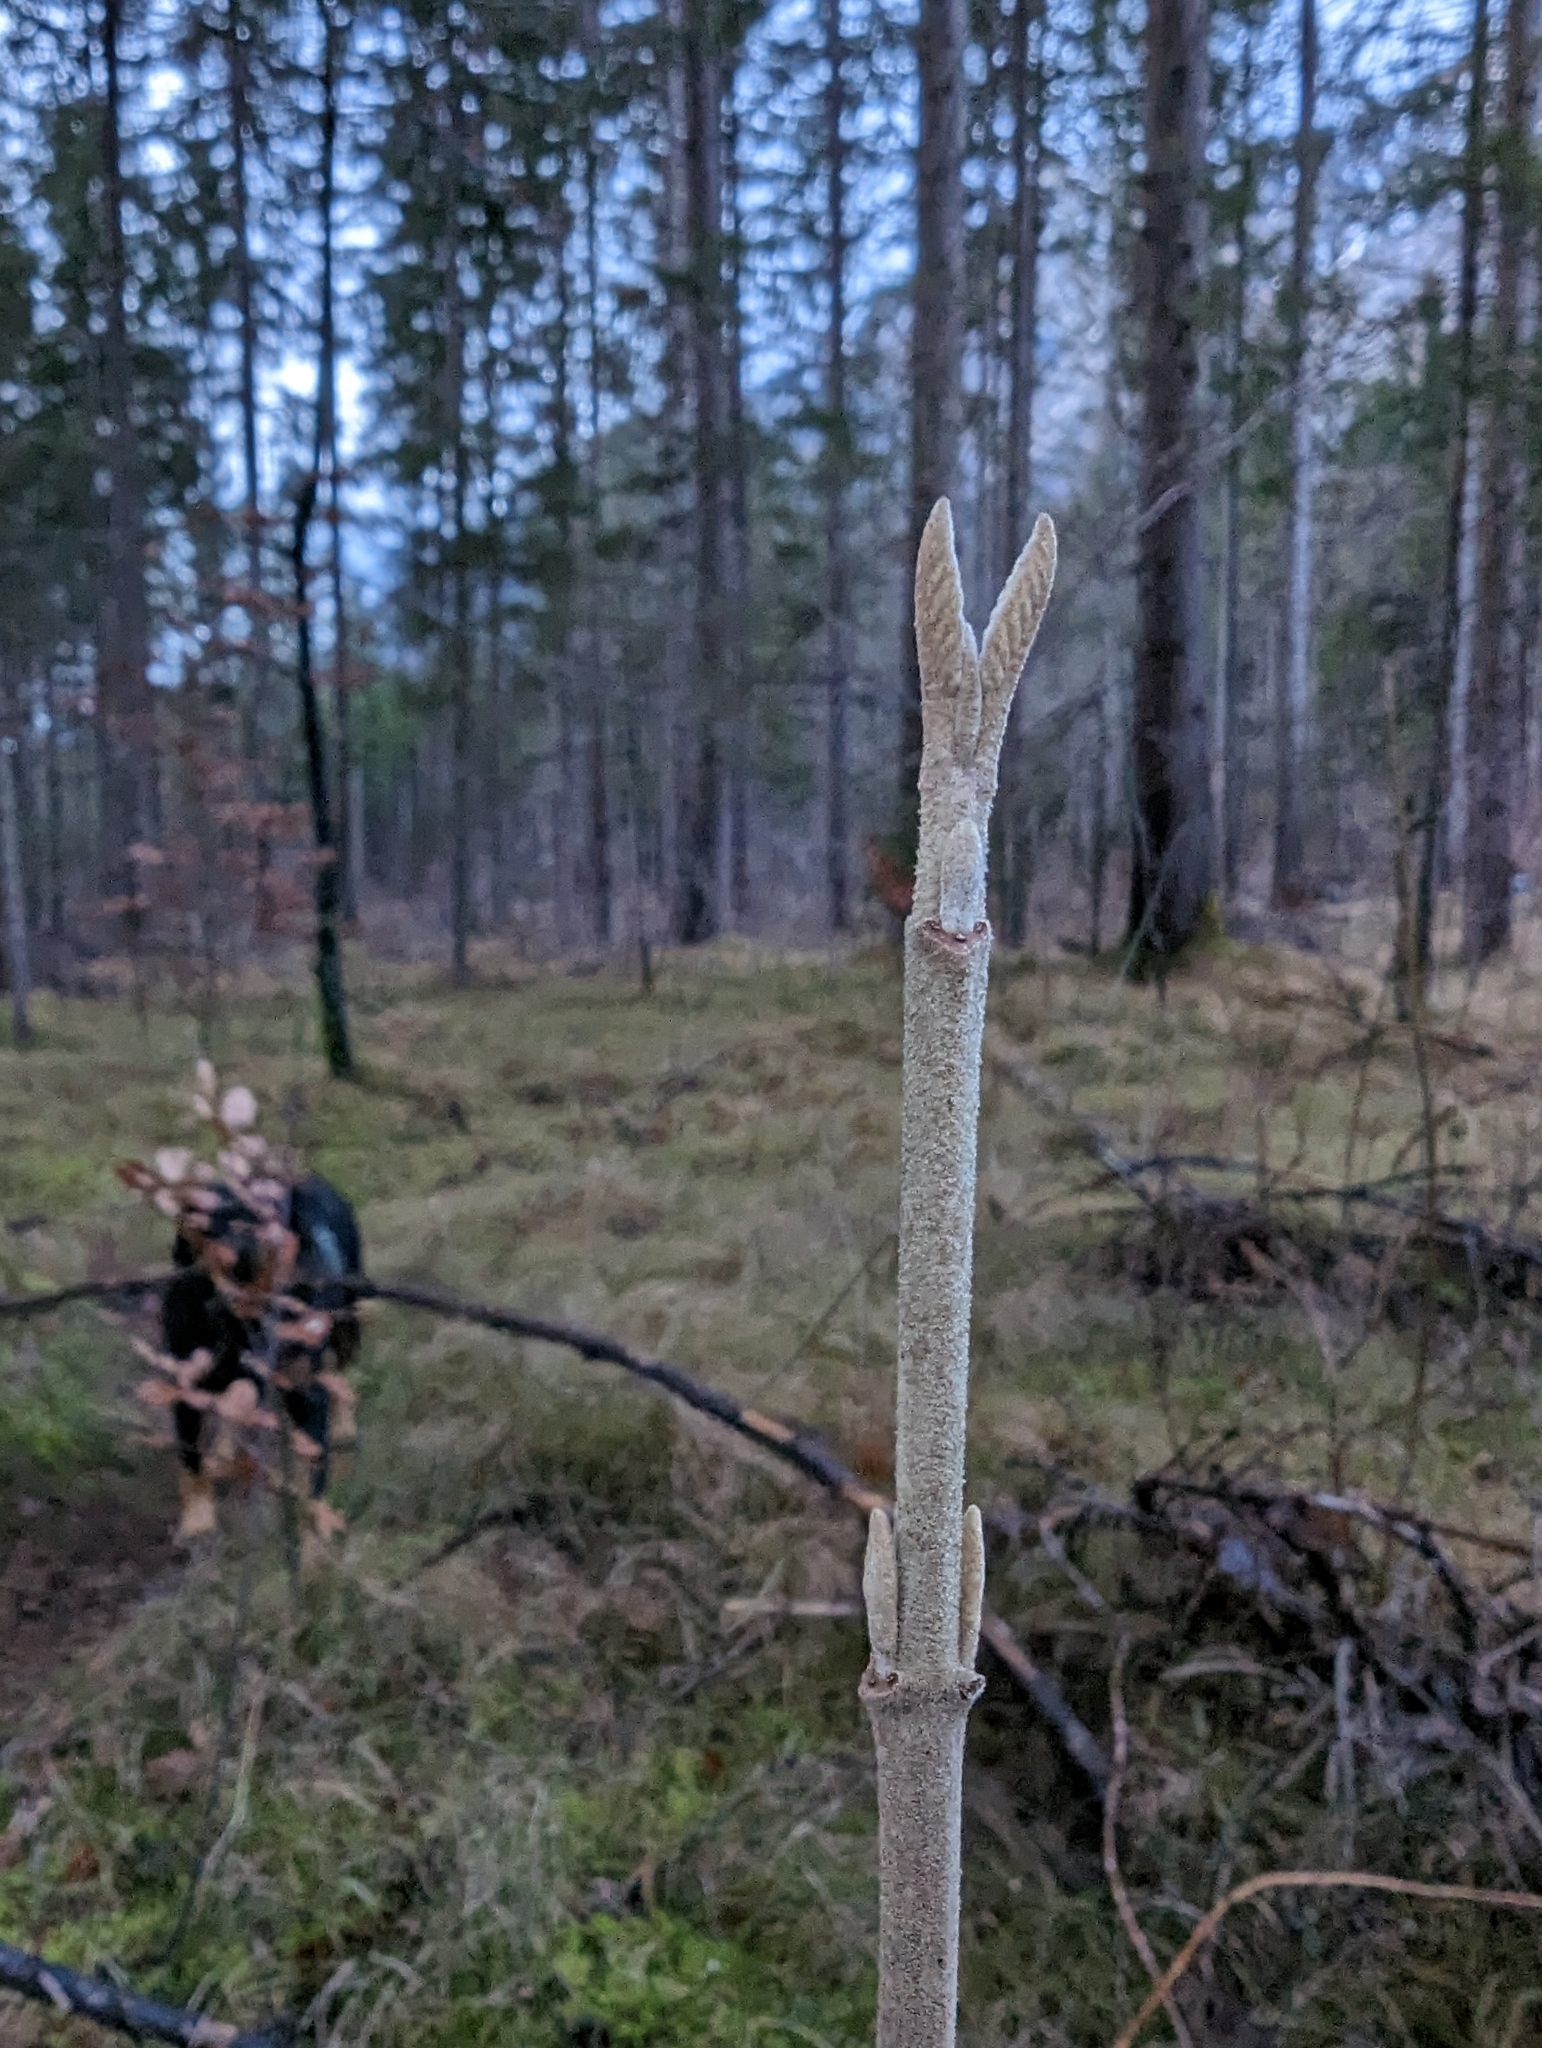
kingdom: Plantae
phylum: Tracheophyta
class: Magnoliopsida
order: Dipsacales
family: Viburnaceae
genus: Viburnum
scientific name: Viburnum lantana
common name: Wayfaring tree
